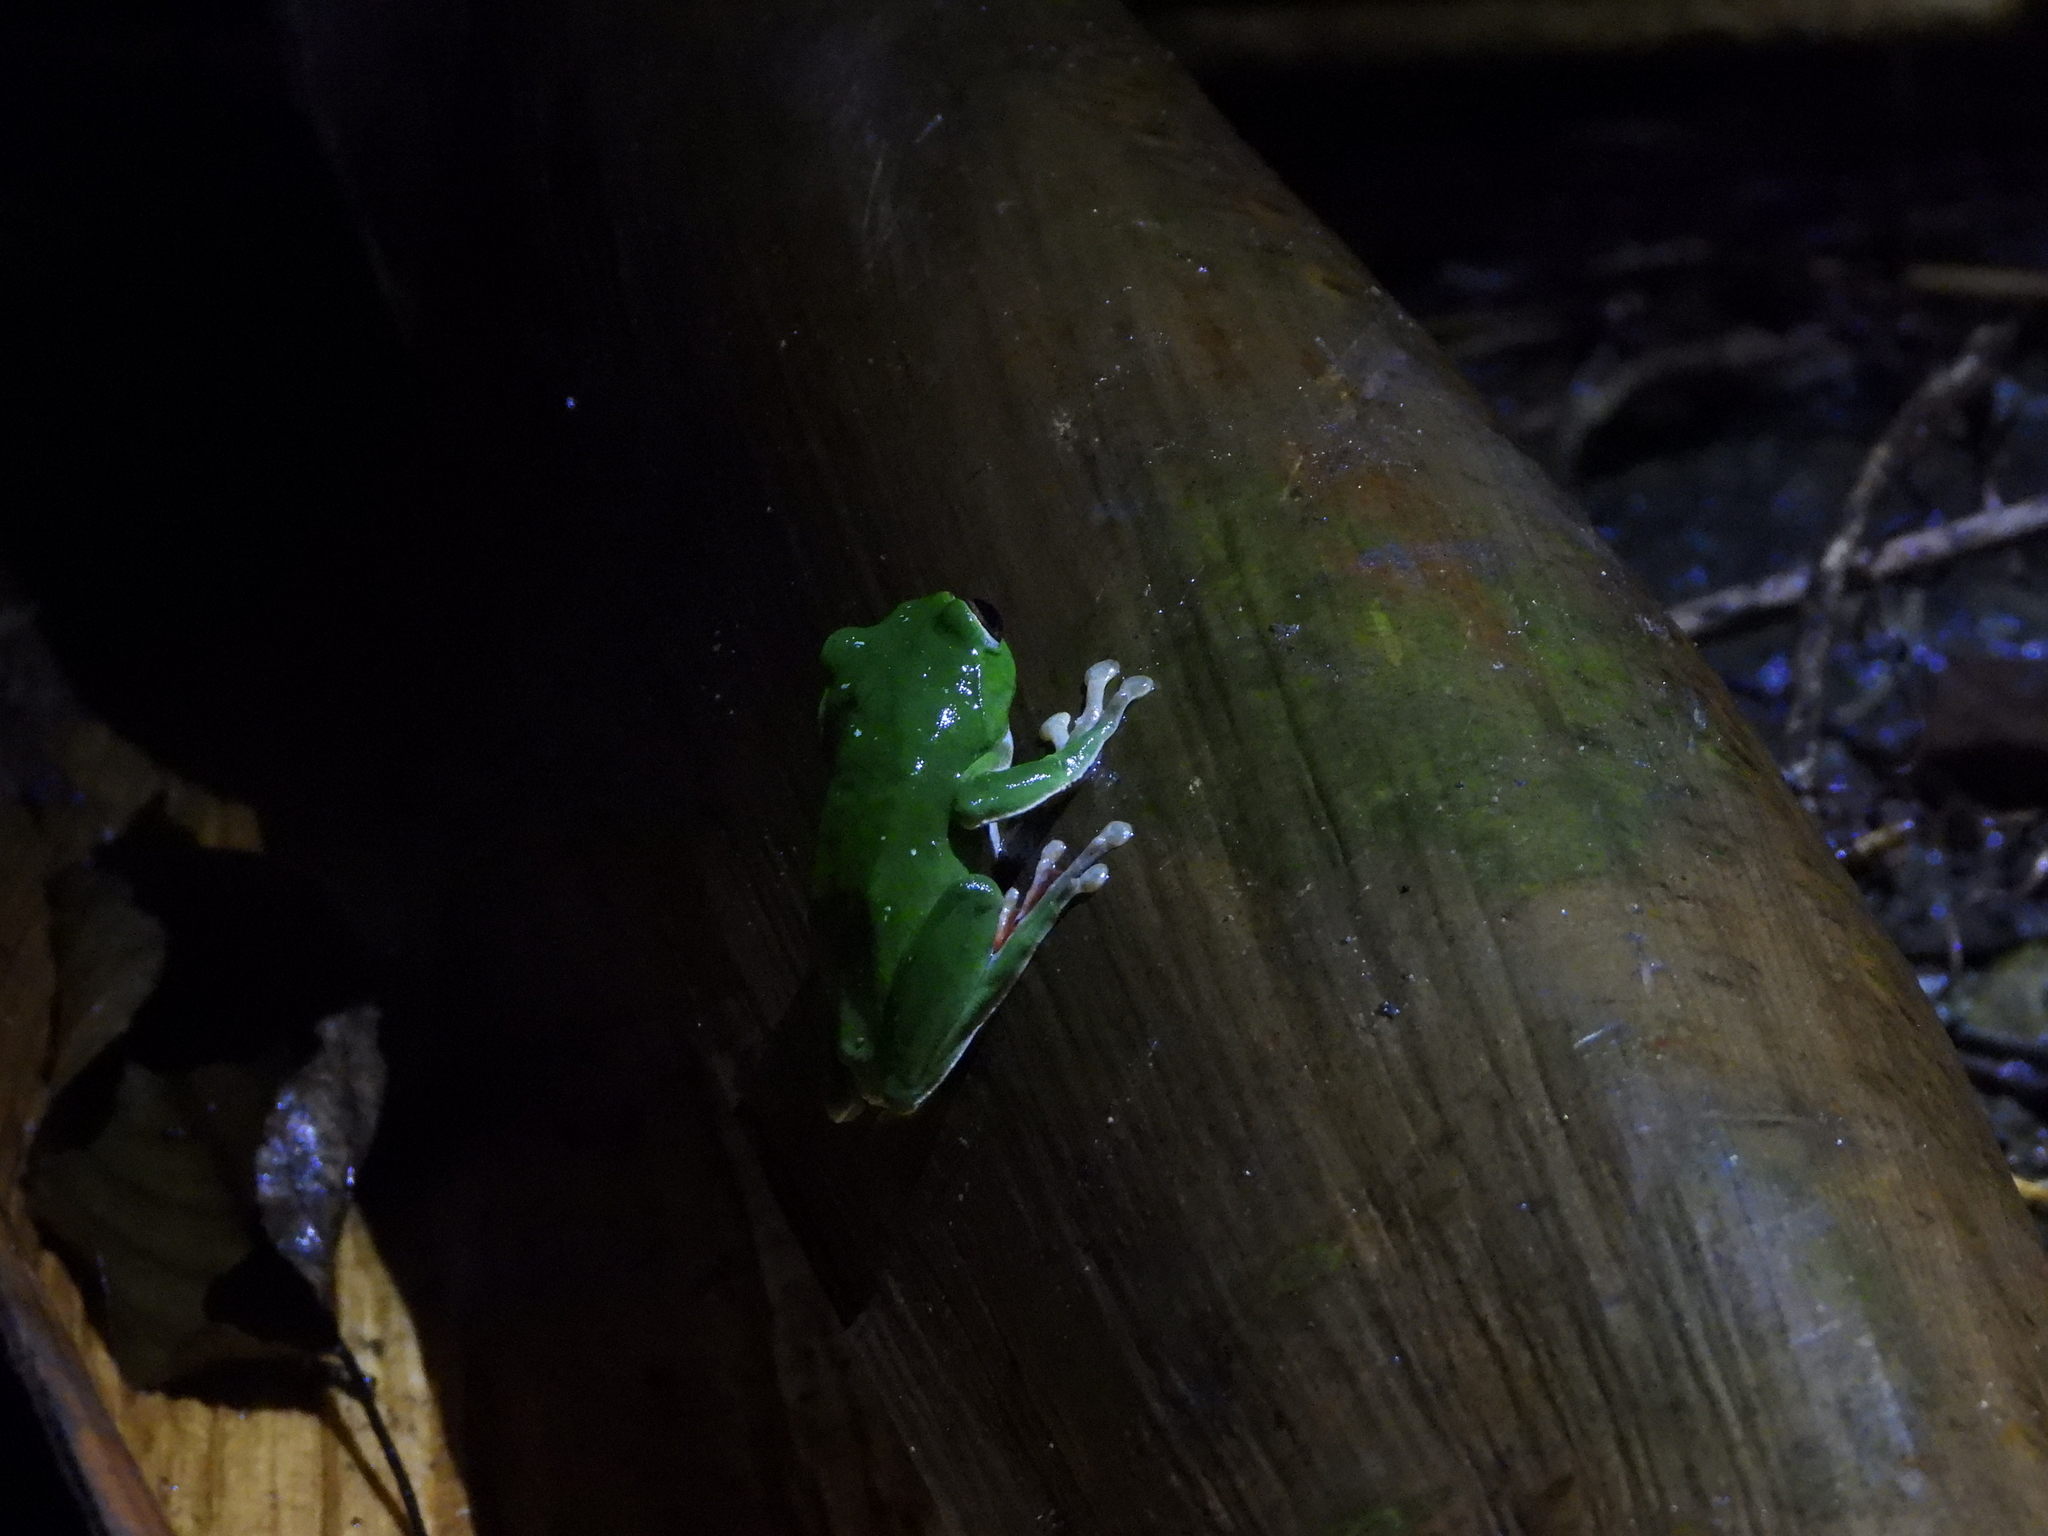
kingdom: Animalia
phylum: Chordata
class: Amphibia
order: Anura
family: Rhacophoridae
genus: Zhangixalus
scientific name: Zhangixalus moltrechti
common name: Moltrecht's treefrog
